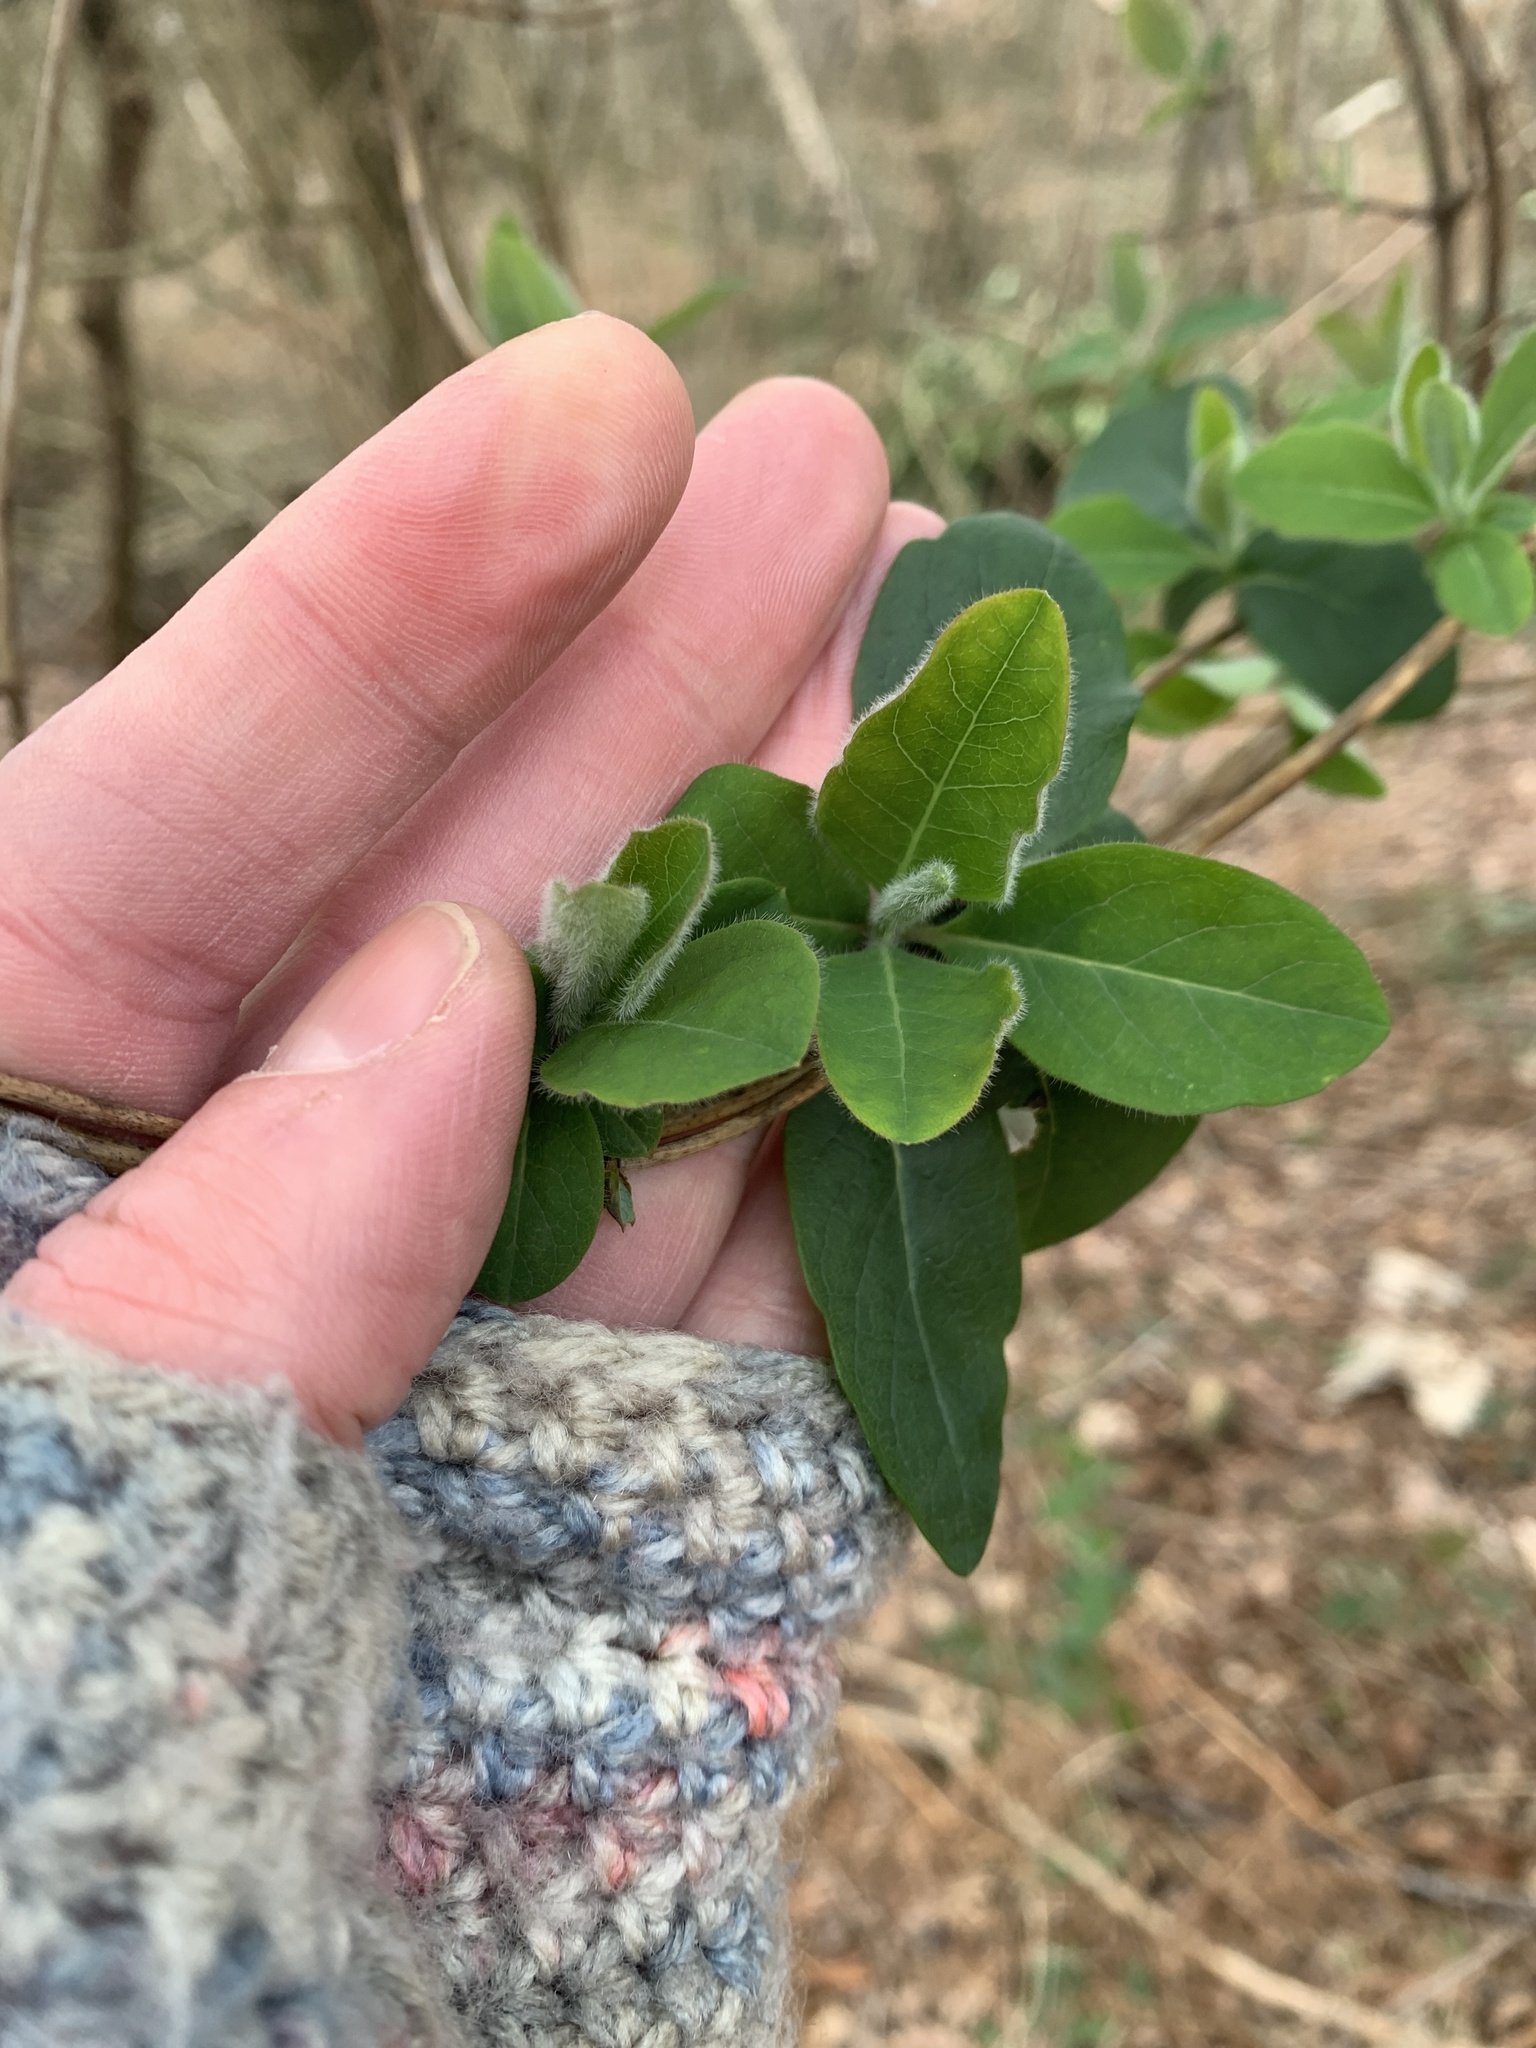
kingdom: Plantae
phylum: Tracheophyta
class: Magnoliopsida
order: Dipsacales
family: Caprifoliaceae
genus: Lonicera
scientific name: Lonicera periclymenum
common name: European honeysuckle
